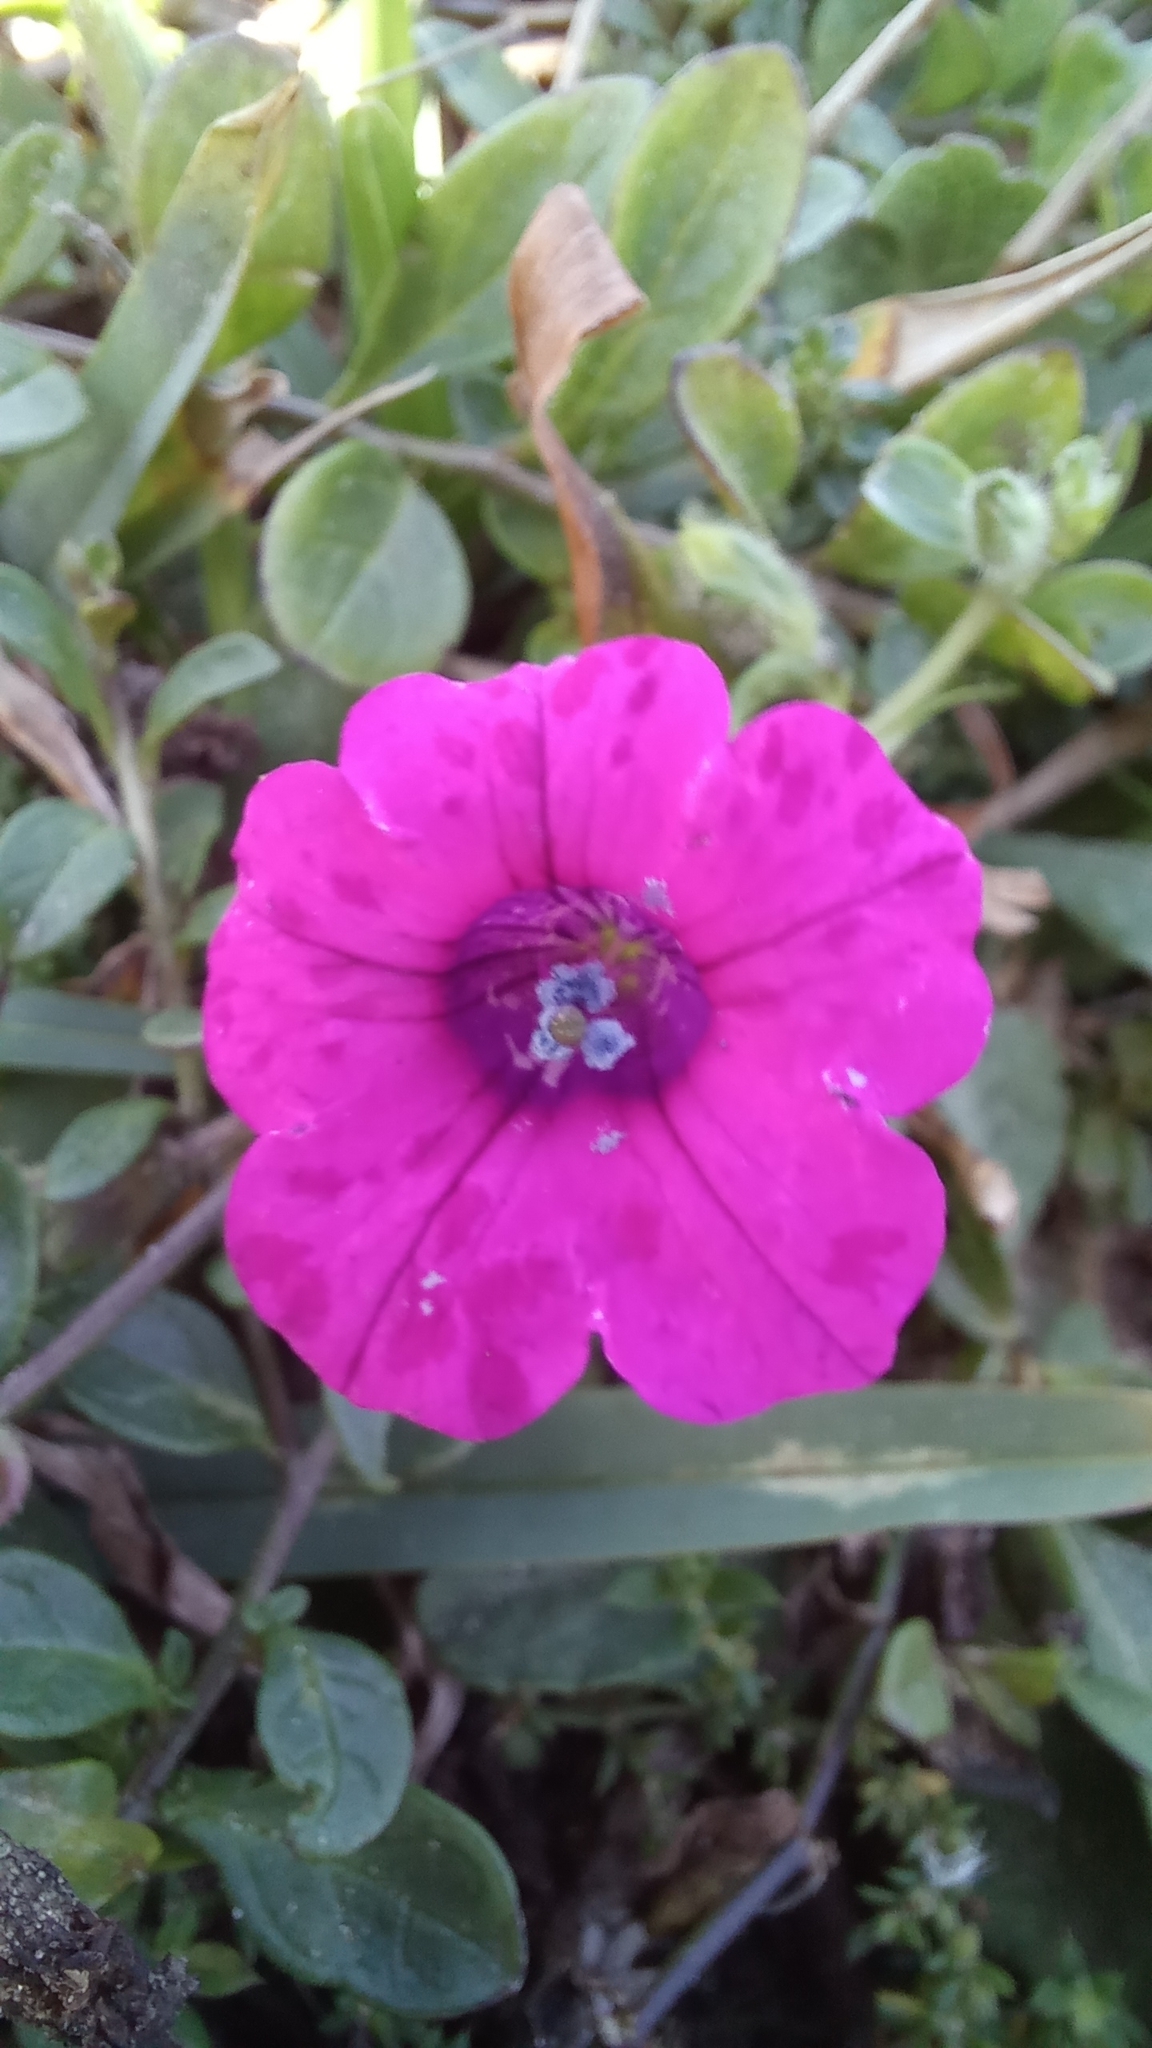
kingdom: Plantae
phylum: Tracheophyta
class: Magnoliopsida
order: Solanales
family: Solanaceae
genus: Petunia
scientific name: Petunia integrifolia
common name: Violet-flower petunia
